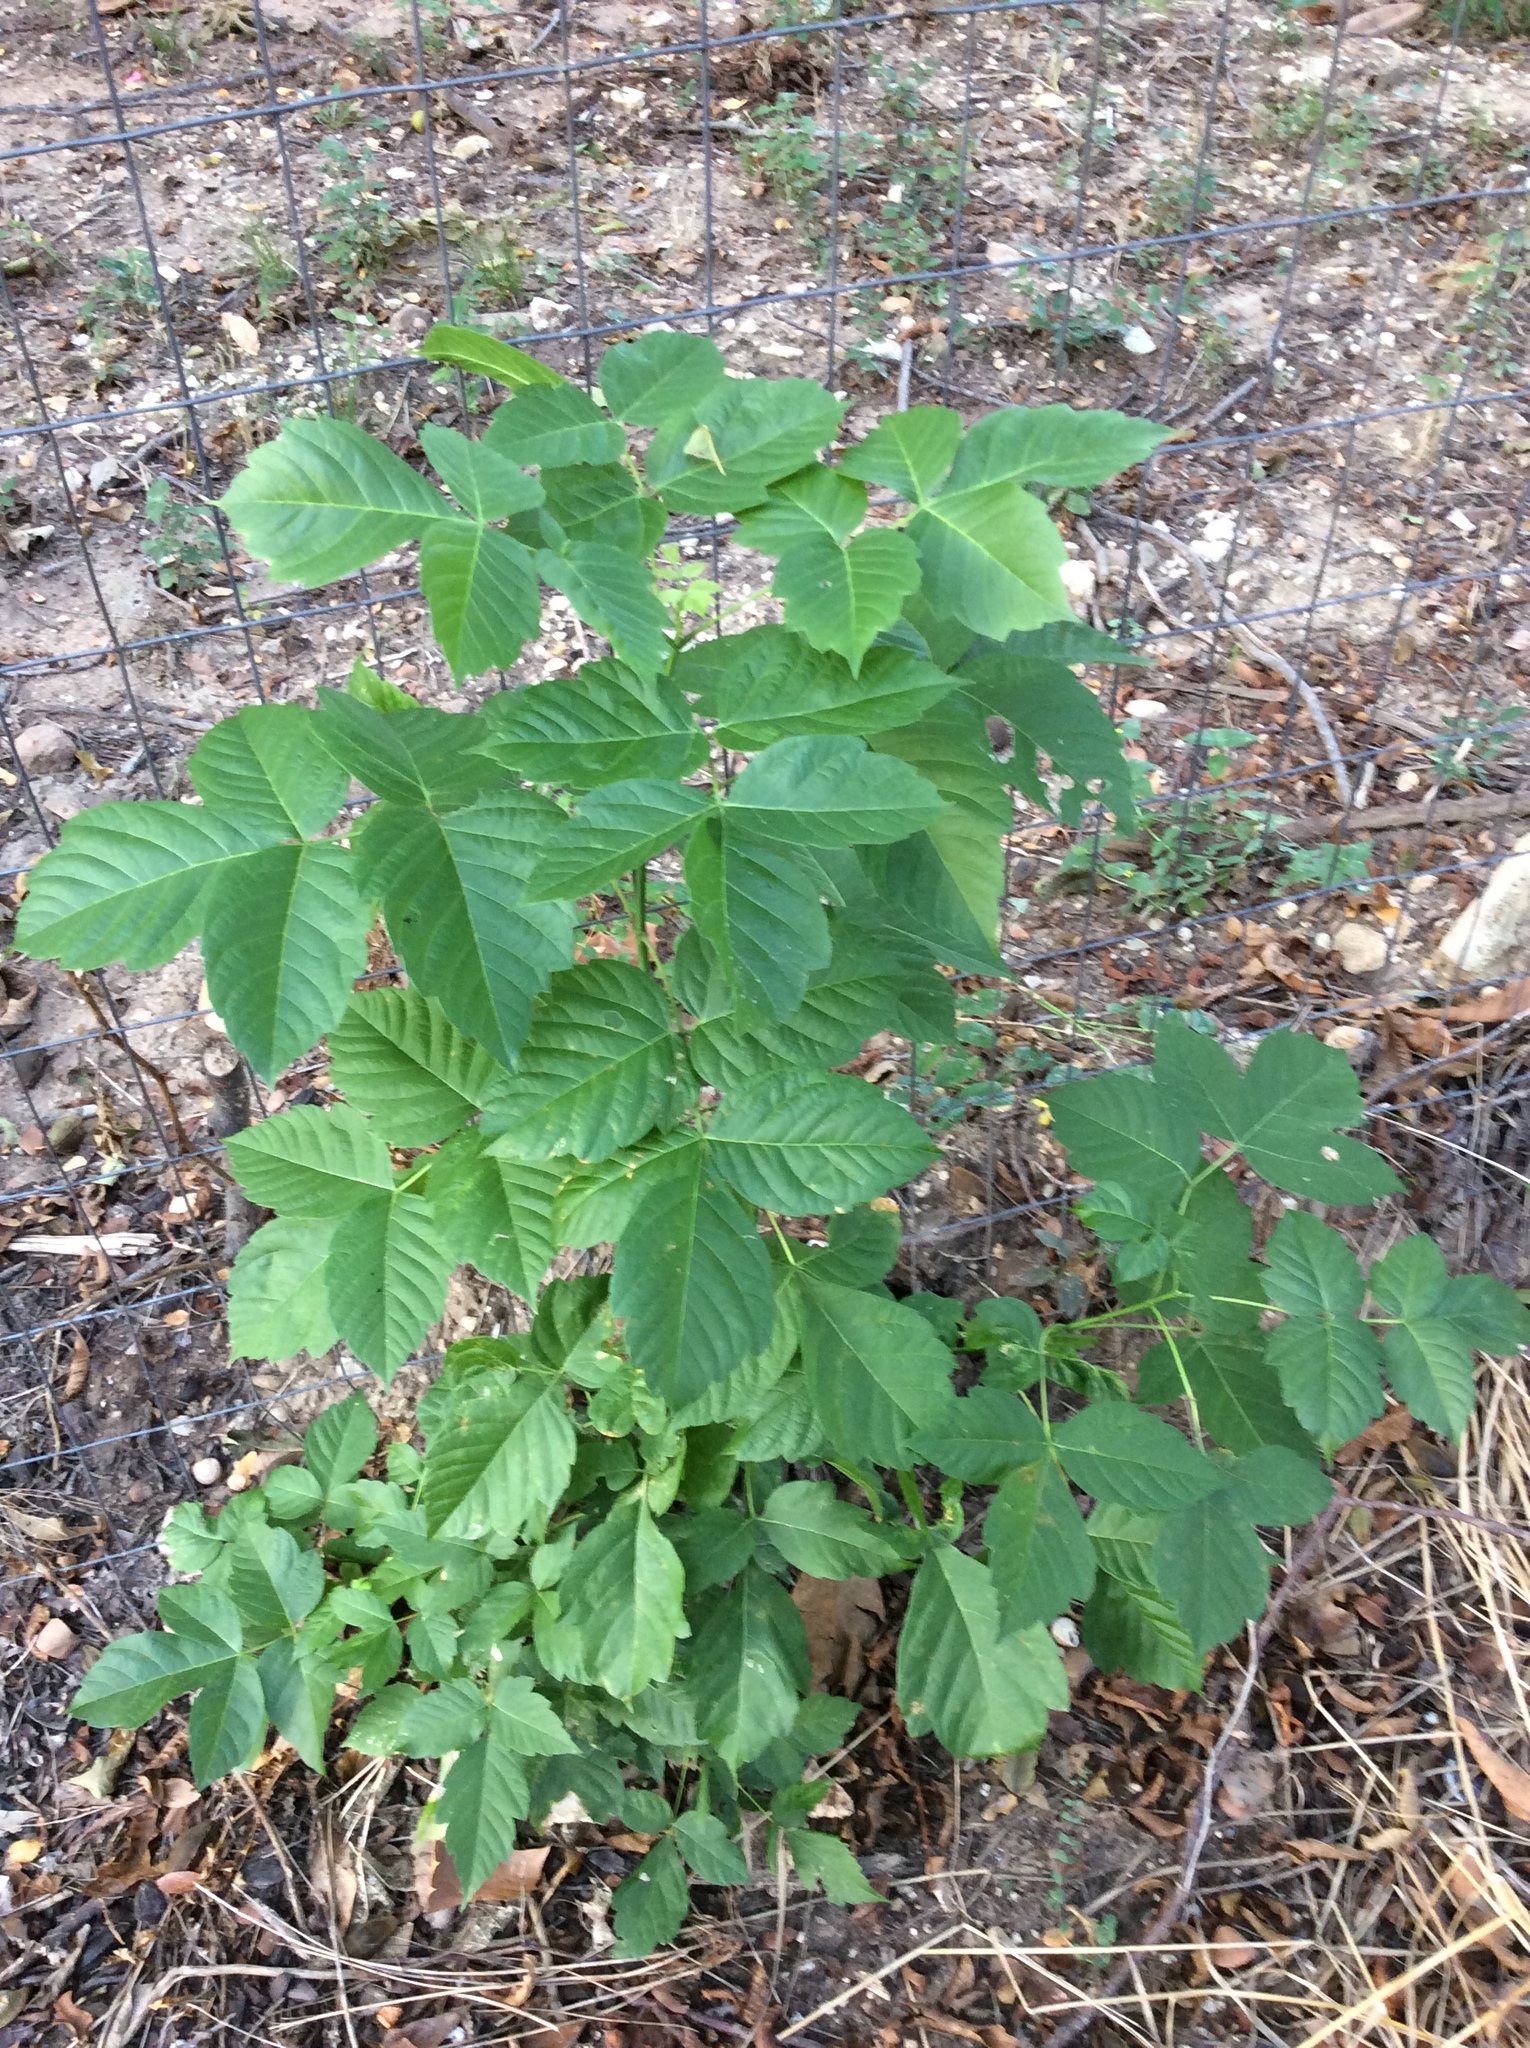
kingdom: Plantae
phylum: Tracheophyta
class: Magnoliopsida
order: Sapindales
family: Sapindaceae
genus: Acer
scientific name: Acer negundo
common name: Ashleaf maple
